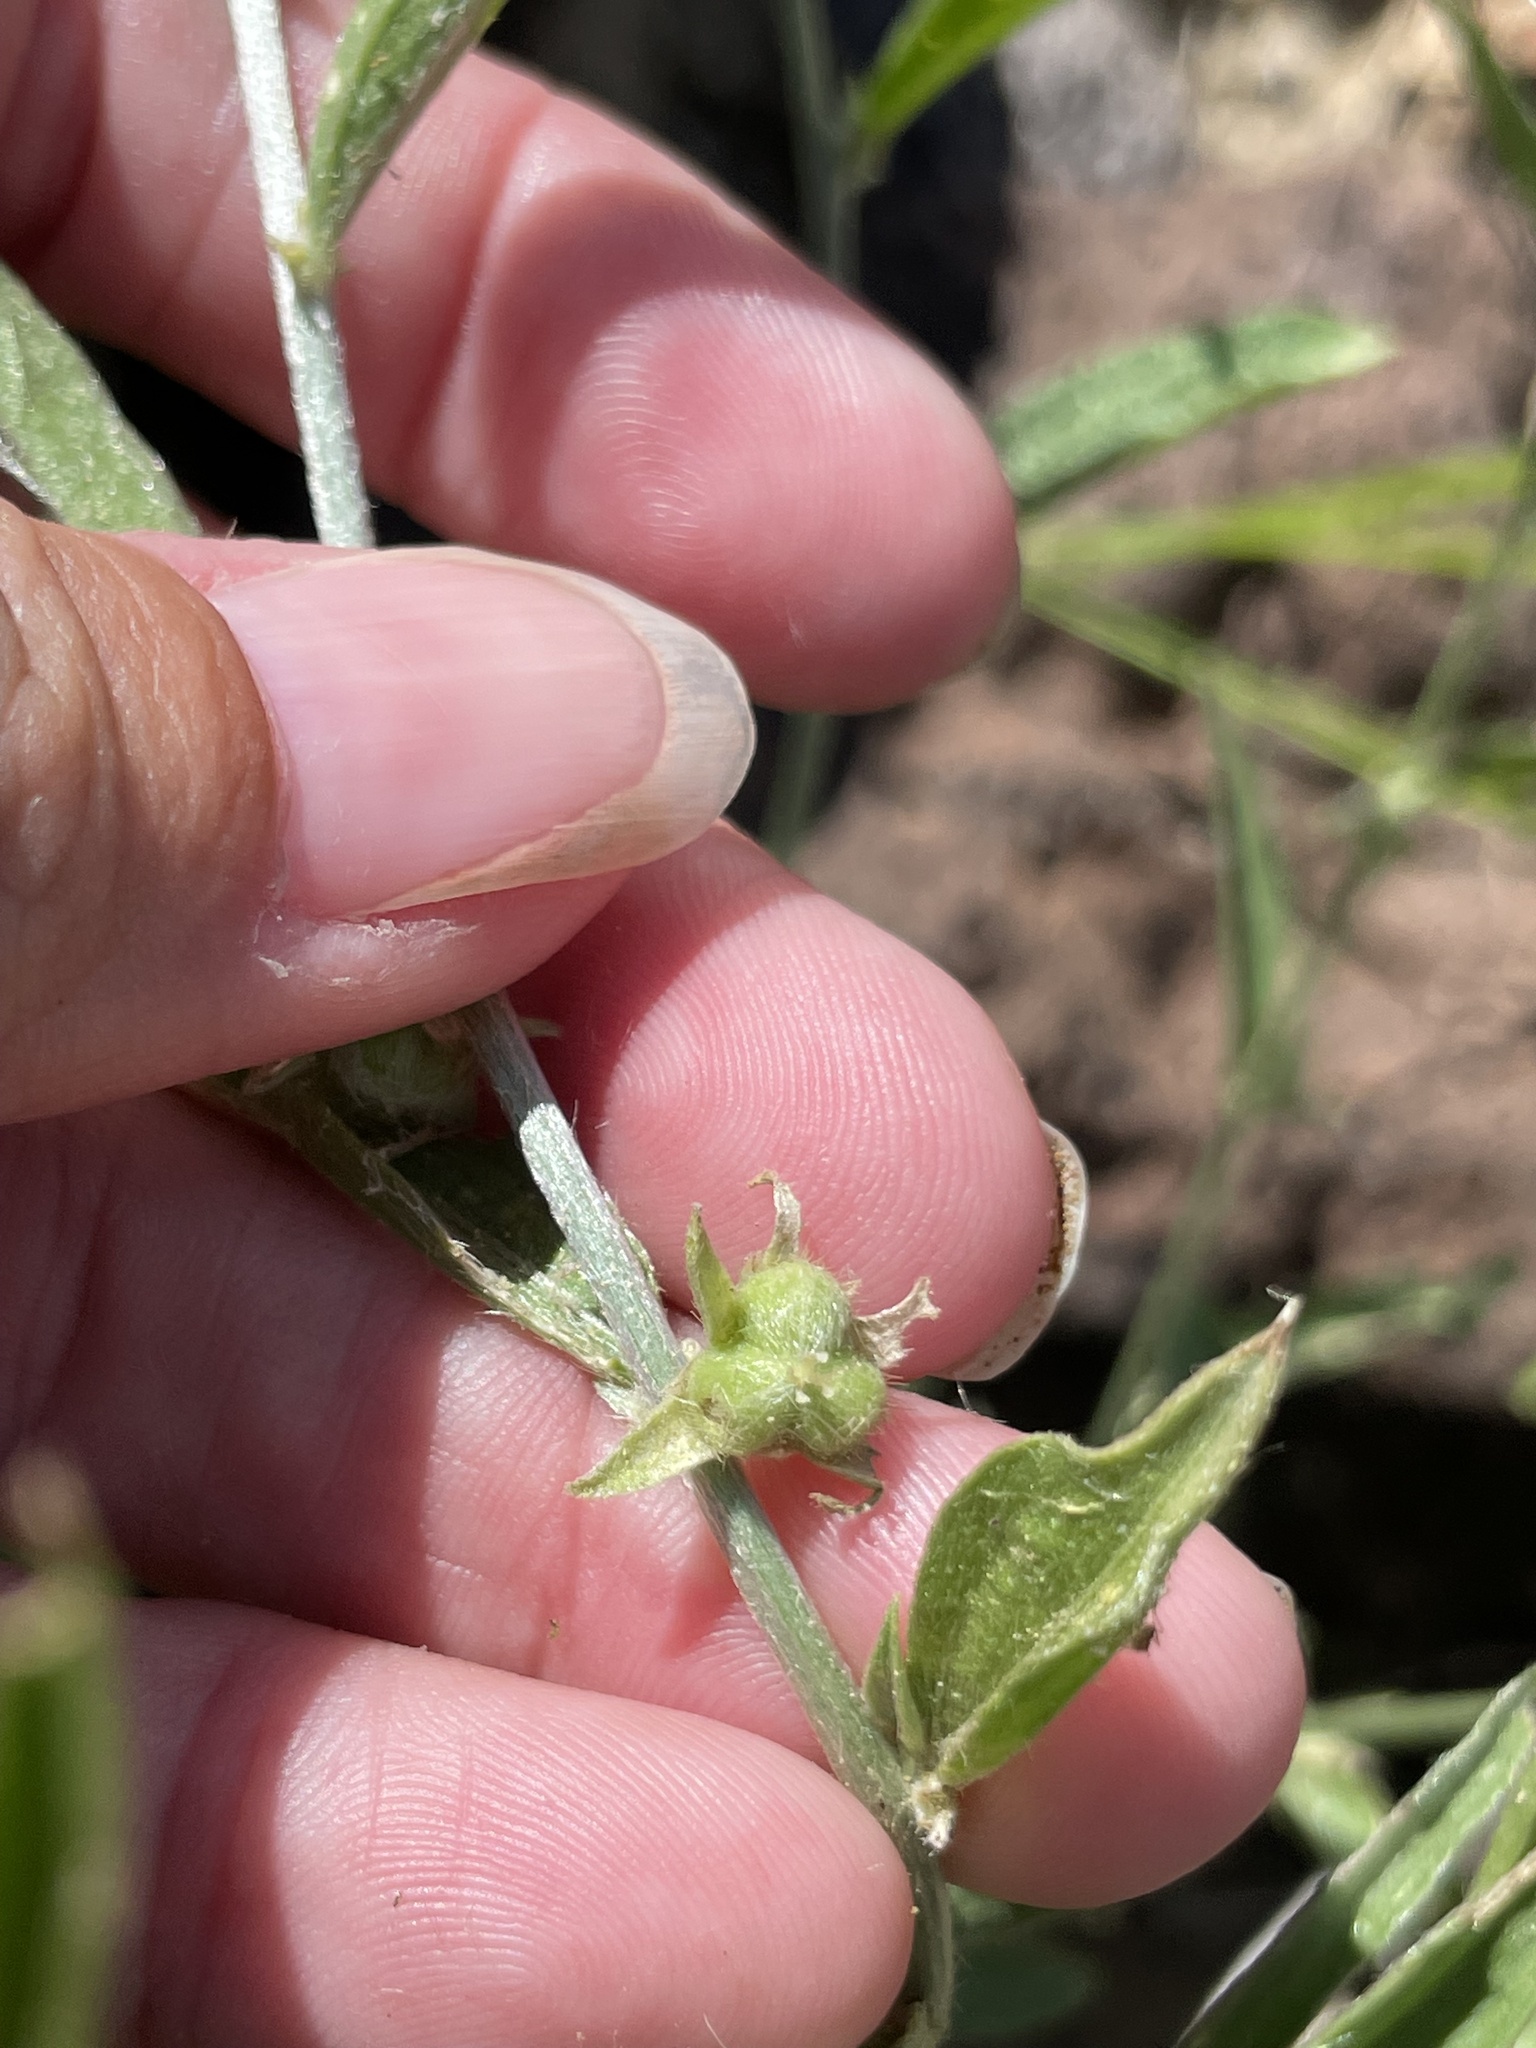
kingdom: Plantae
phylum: Tracheophyta
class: Magnoliopsida
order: Malpighiales
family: Euphorbiaceae
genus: Ditaxis
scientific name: Ditaxis lanceolata
